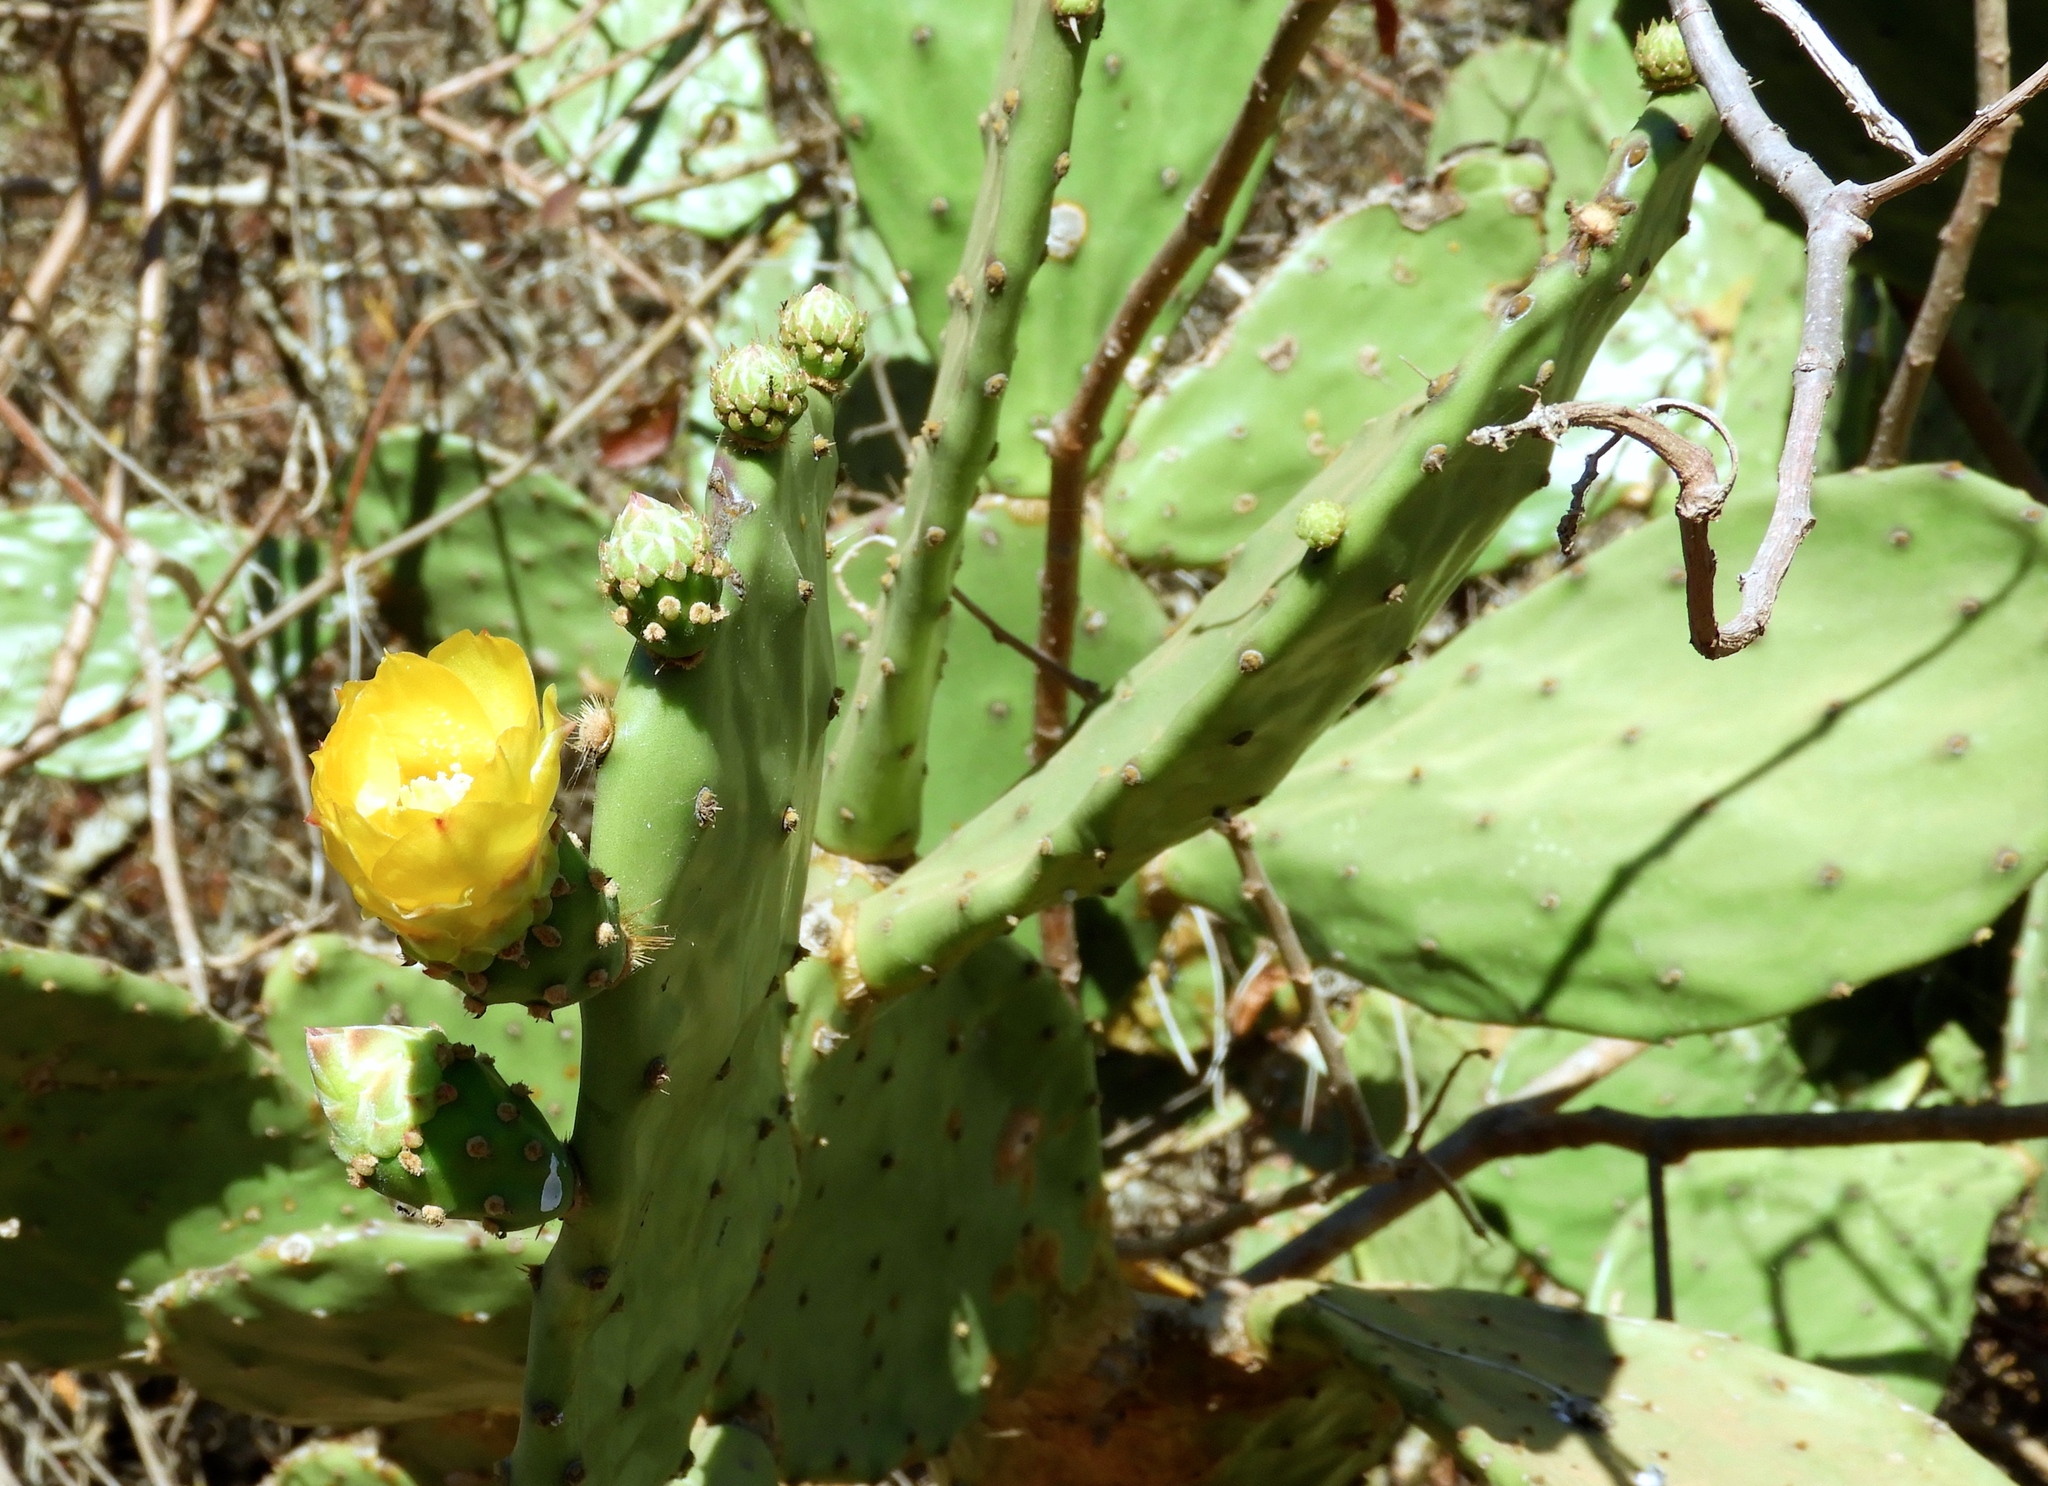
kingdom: Plantae
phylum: Tracheophyta
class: Magnoliopsida
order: Caryophyllales
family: Cactaceae
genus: Opuntia
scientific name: Opuntia
